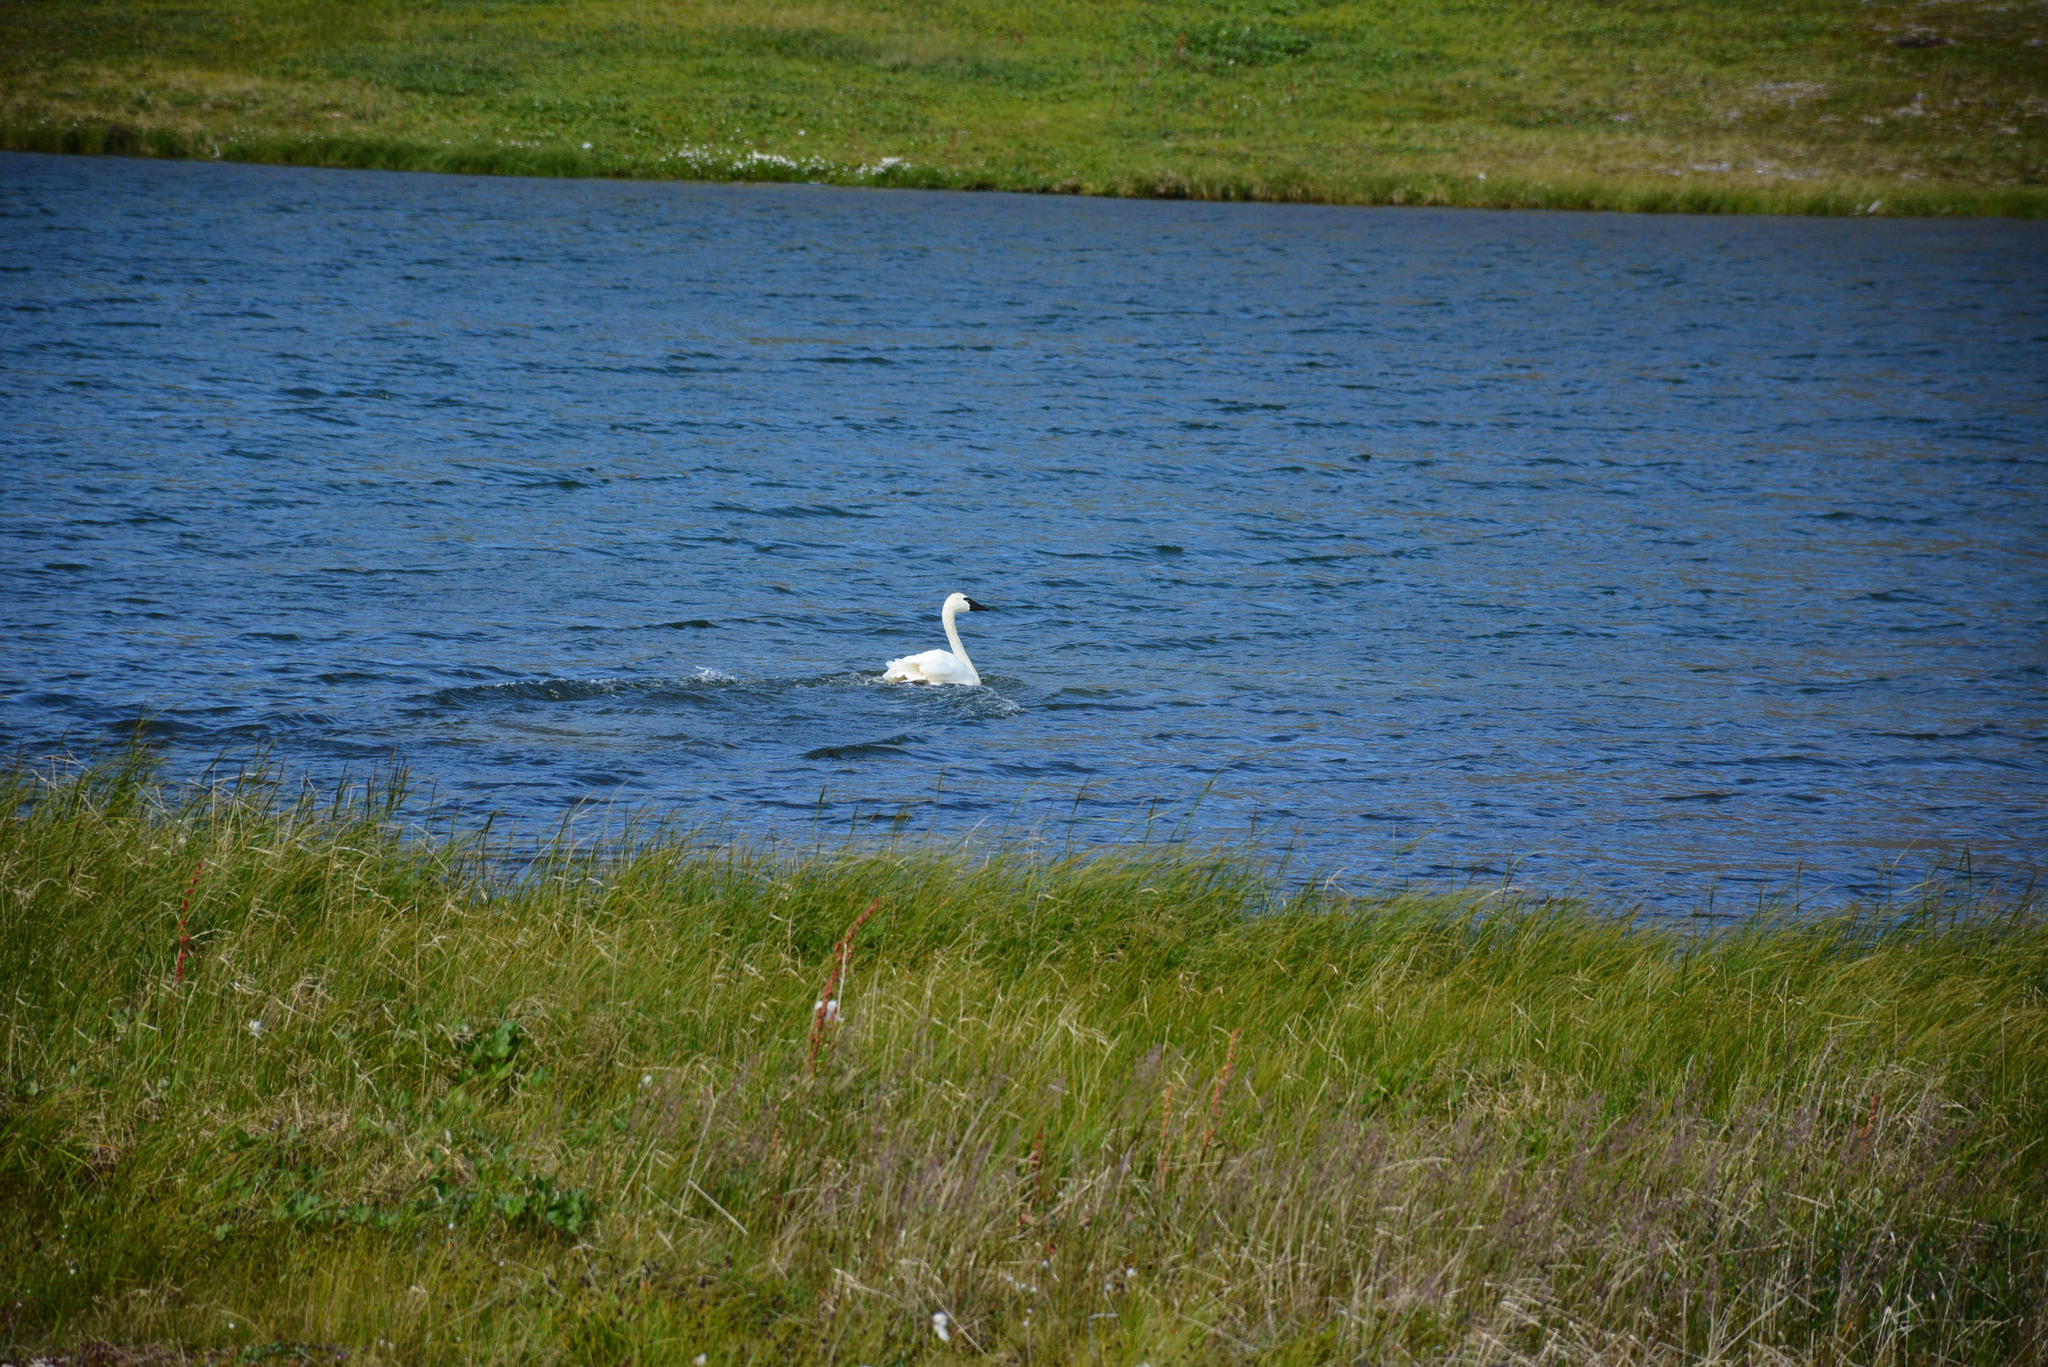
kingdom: Animalia
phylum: Chordata
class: Aves
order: Anseriformes
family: Anatidae
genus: Cygnus
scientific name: Cygnus columbianus
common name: Tundra swan
